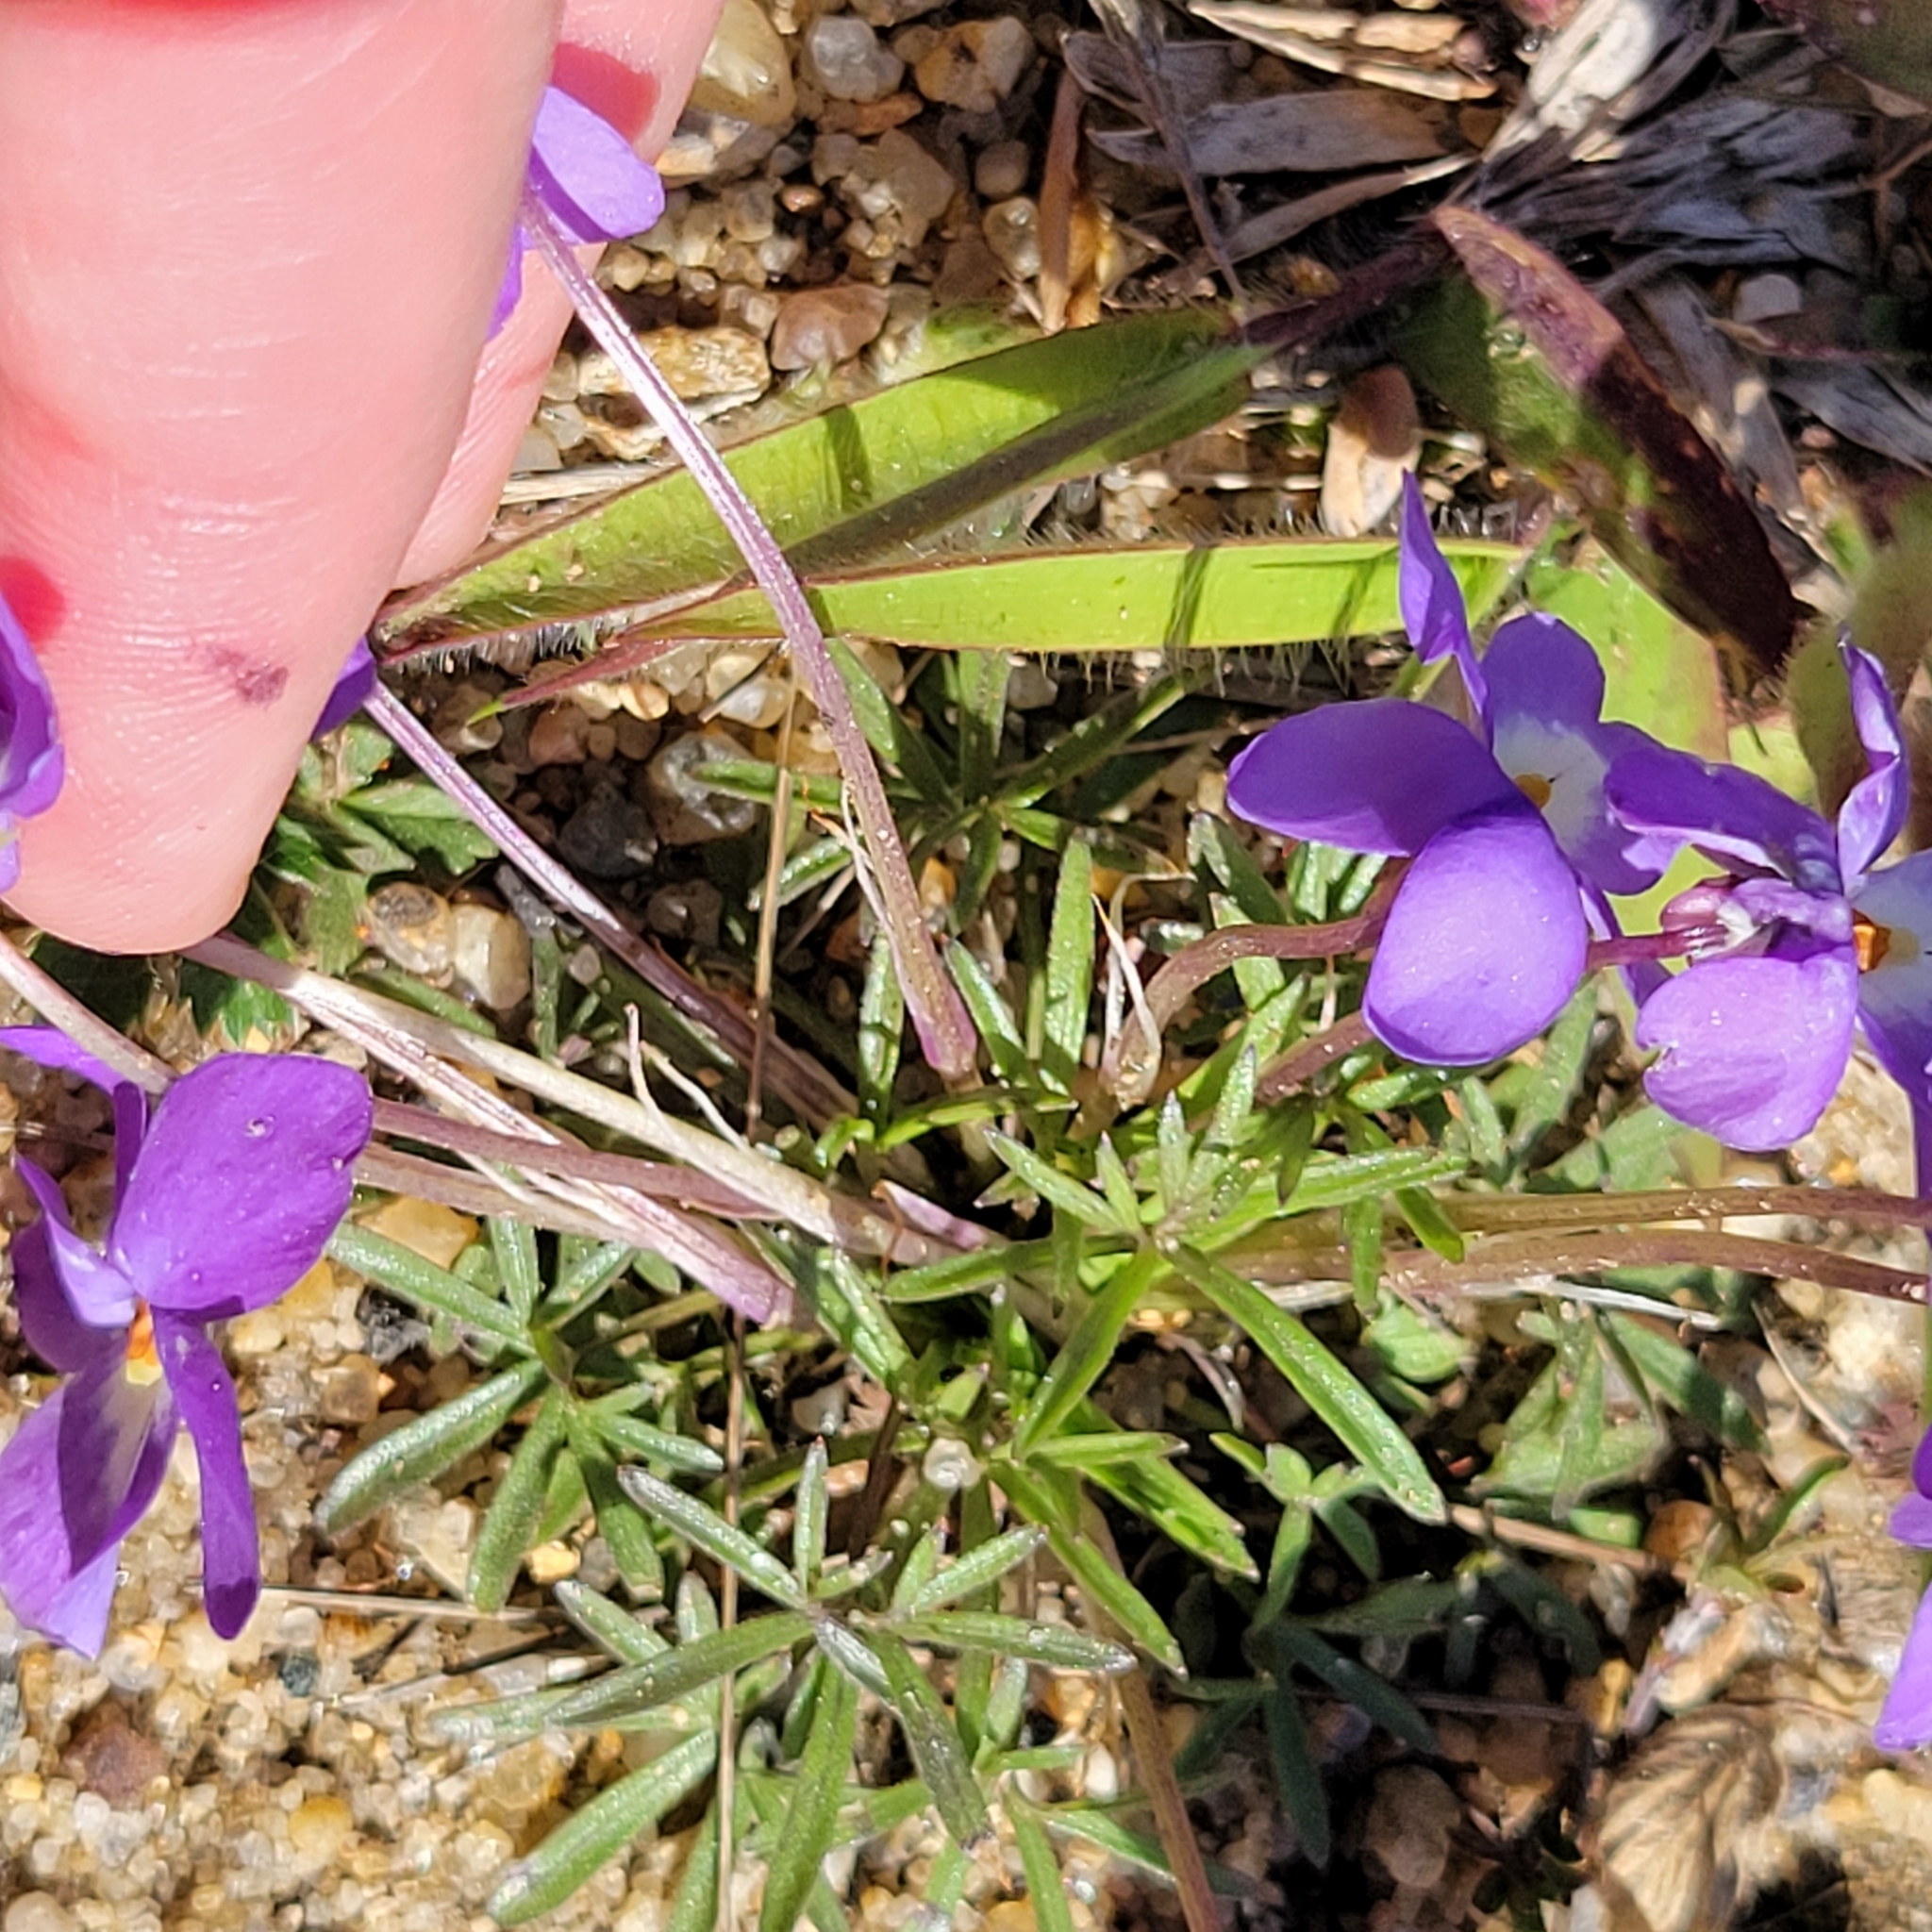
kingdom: Plantae
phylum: Tracheophyta
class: Magnoliopsida
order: Malpighiales
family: Violaceae
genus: Viola
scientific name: Viola pedata
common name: Pansy violet
